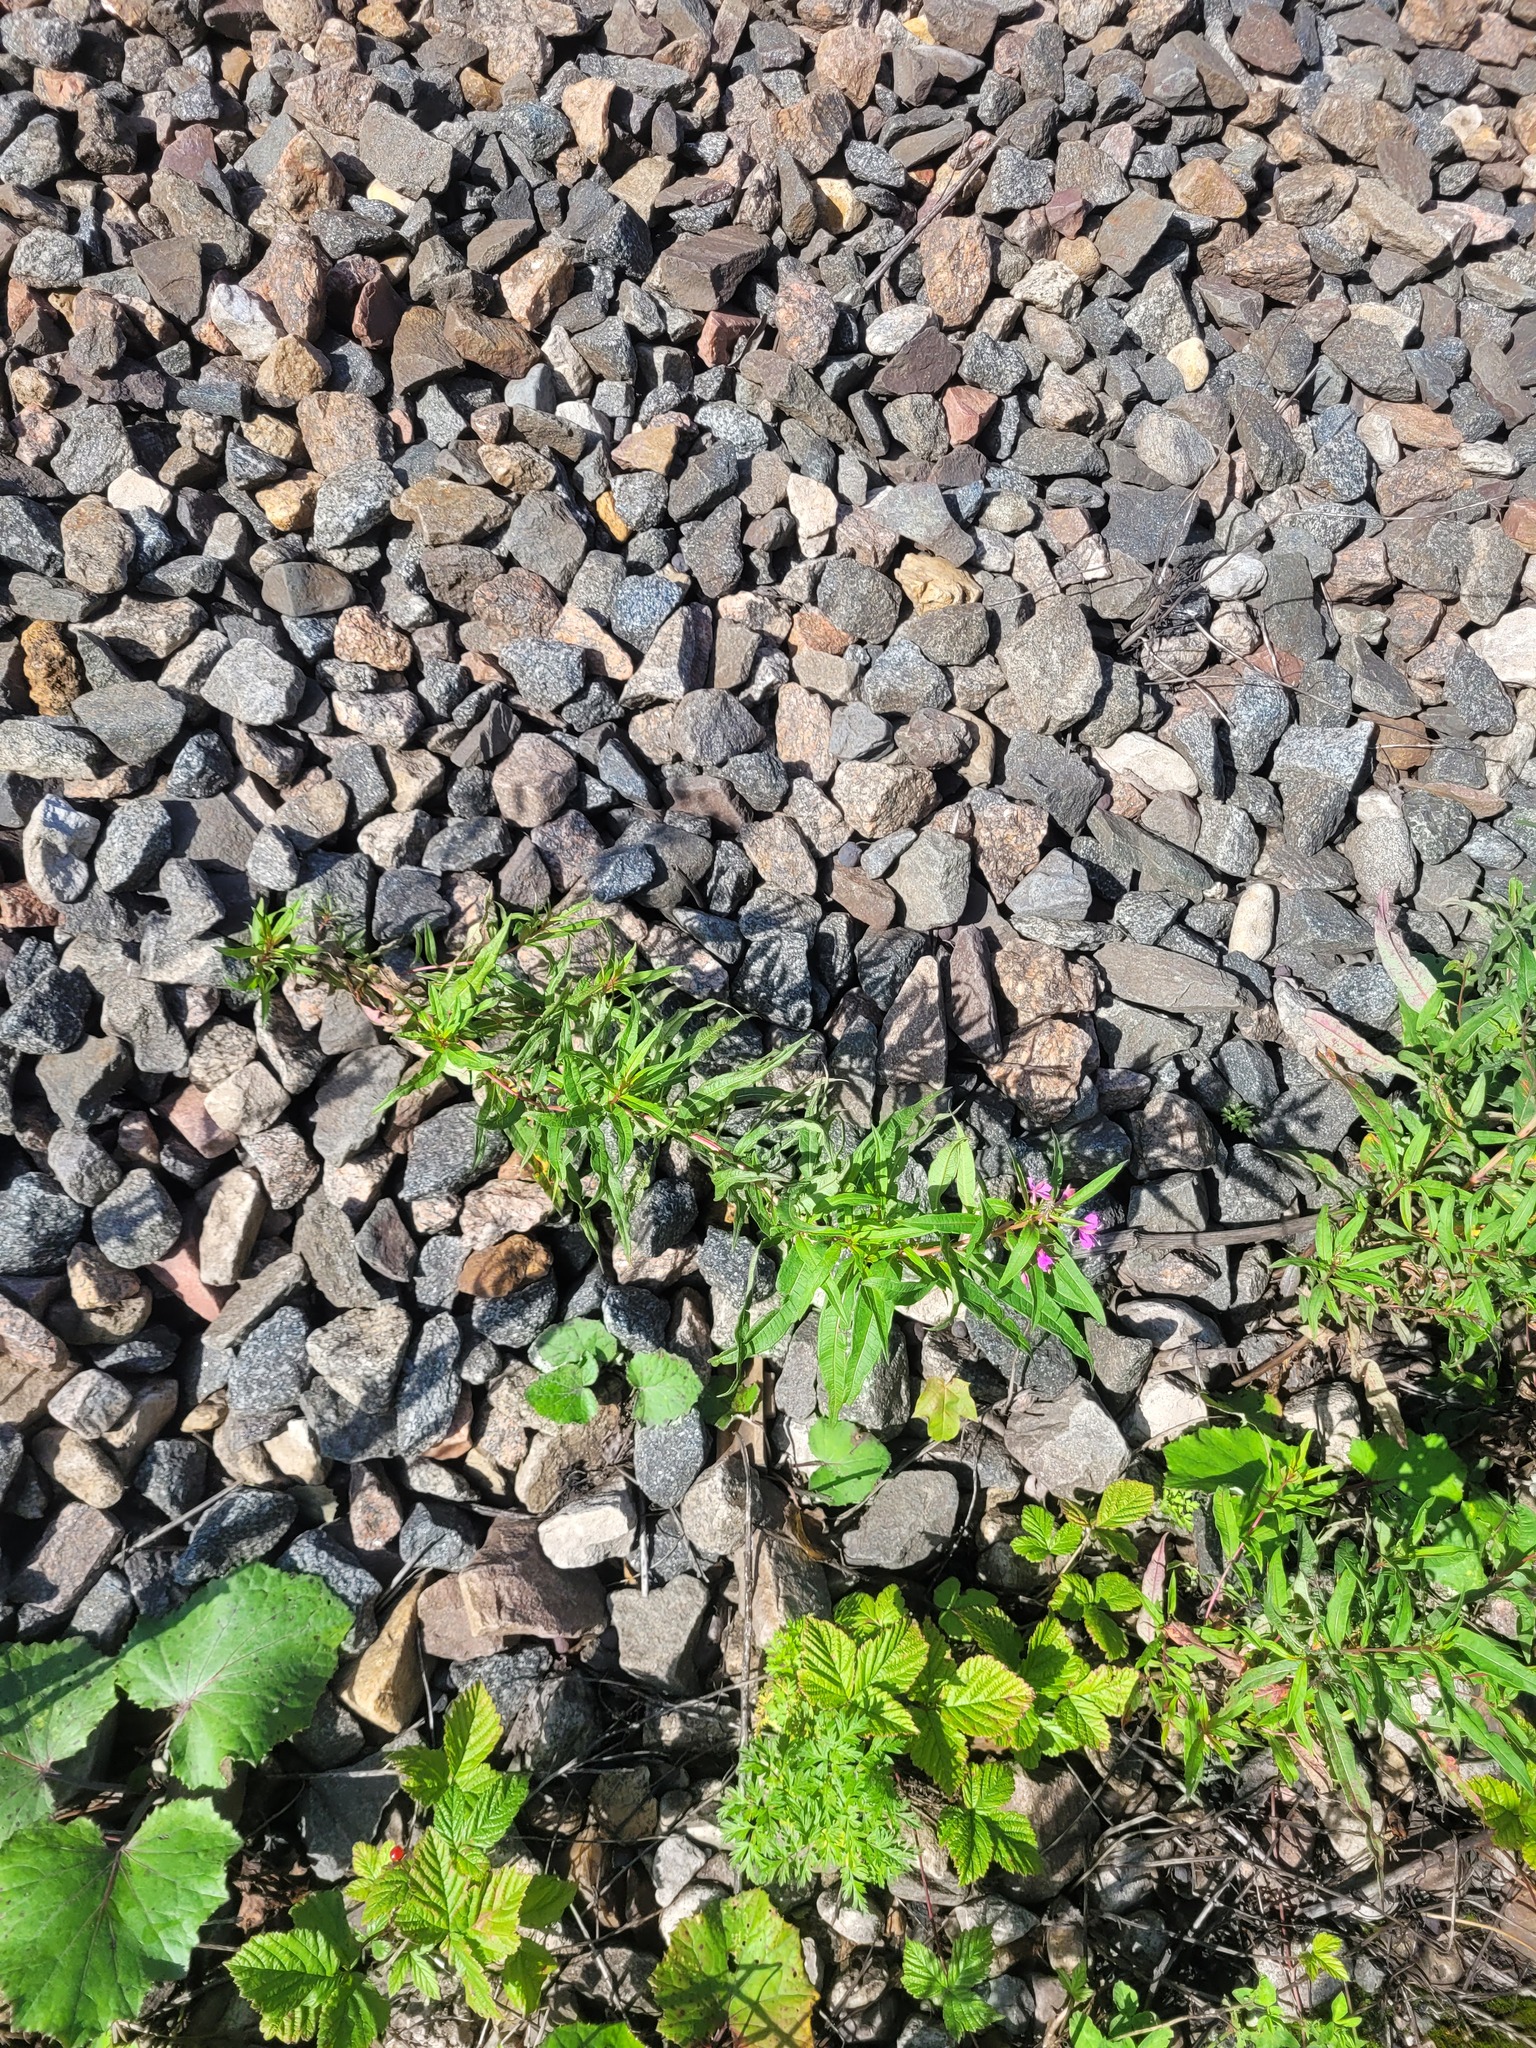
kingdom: Plantae
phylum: Tracheophyta
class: Magnoliopsida
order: Myrtales
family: Onagraceae
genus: Chamaenerion
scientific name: Chamaenerion angustifolium
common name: Fireweed
